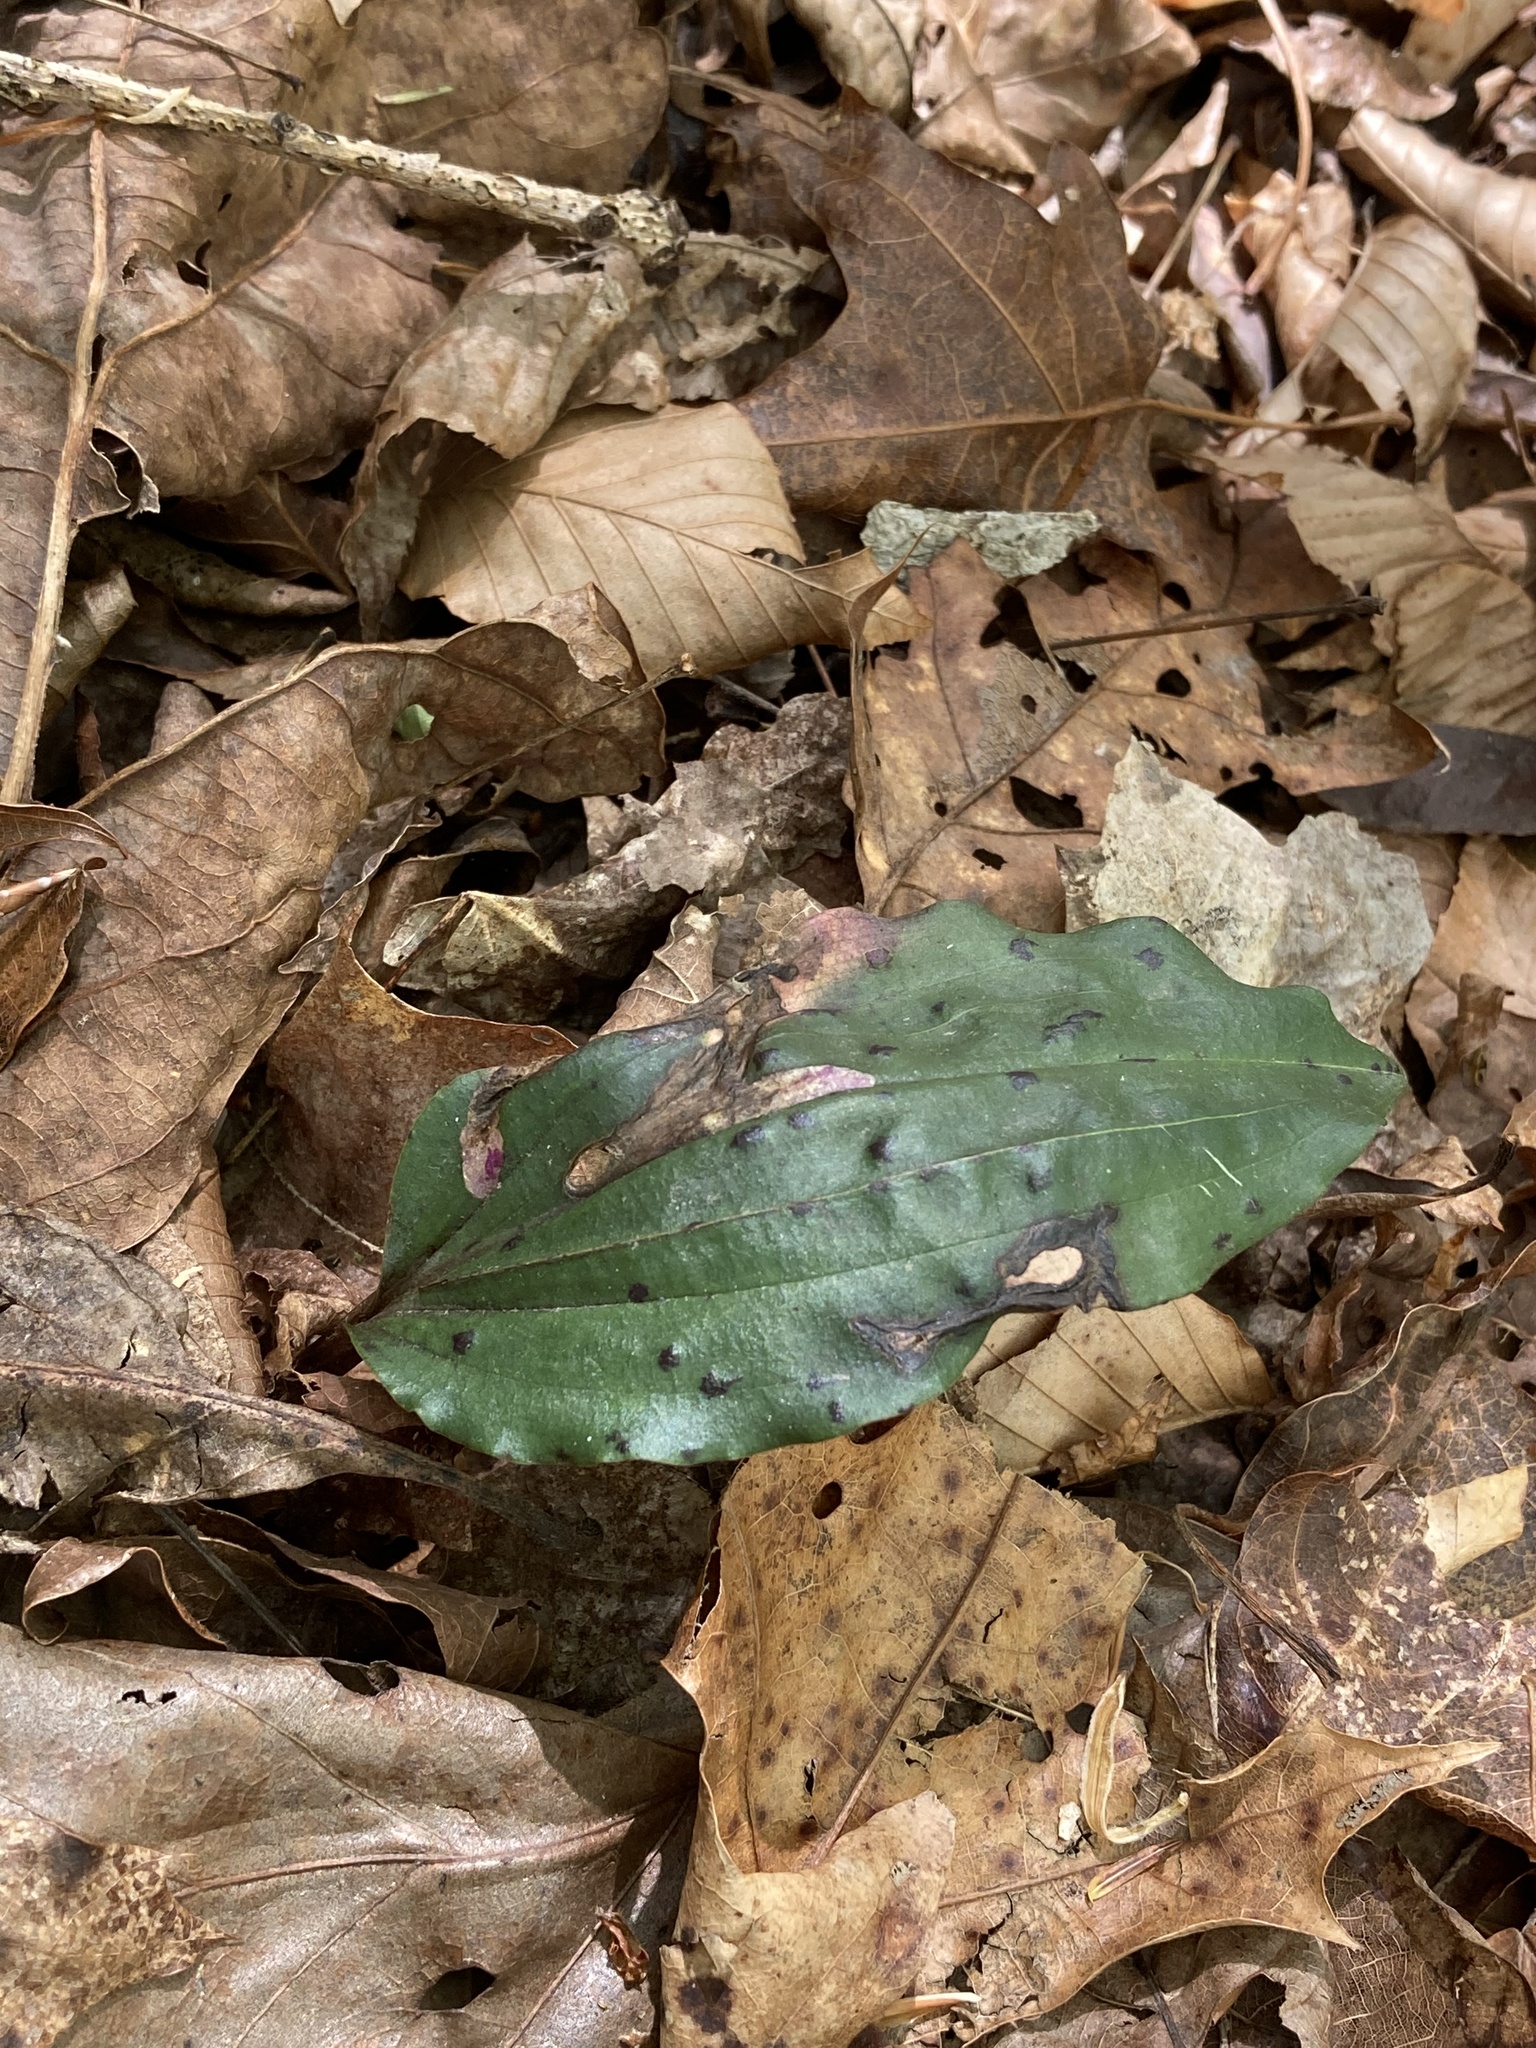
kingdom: Plantae
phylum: Tracheophyta
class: Liliopsida
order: Asparagales
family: Orchidaceae
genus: Tipularia
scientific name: Tipularia discolor
